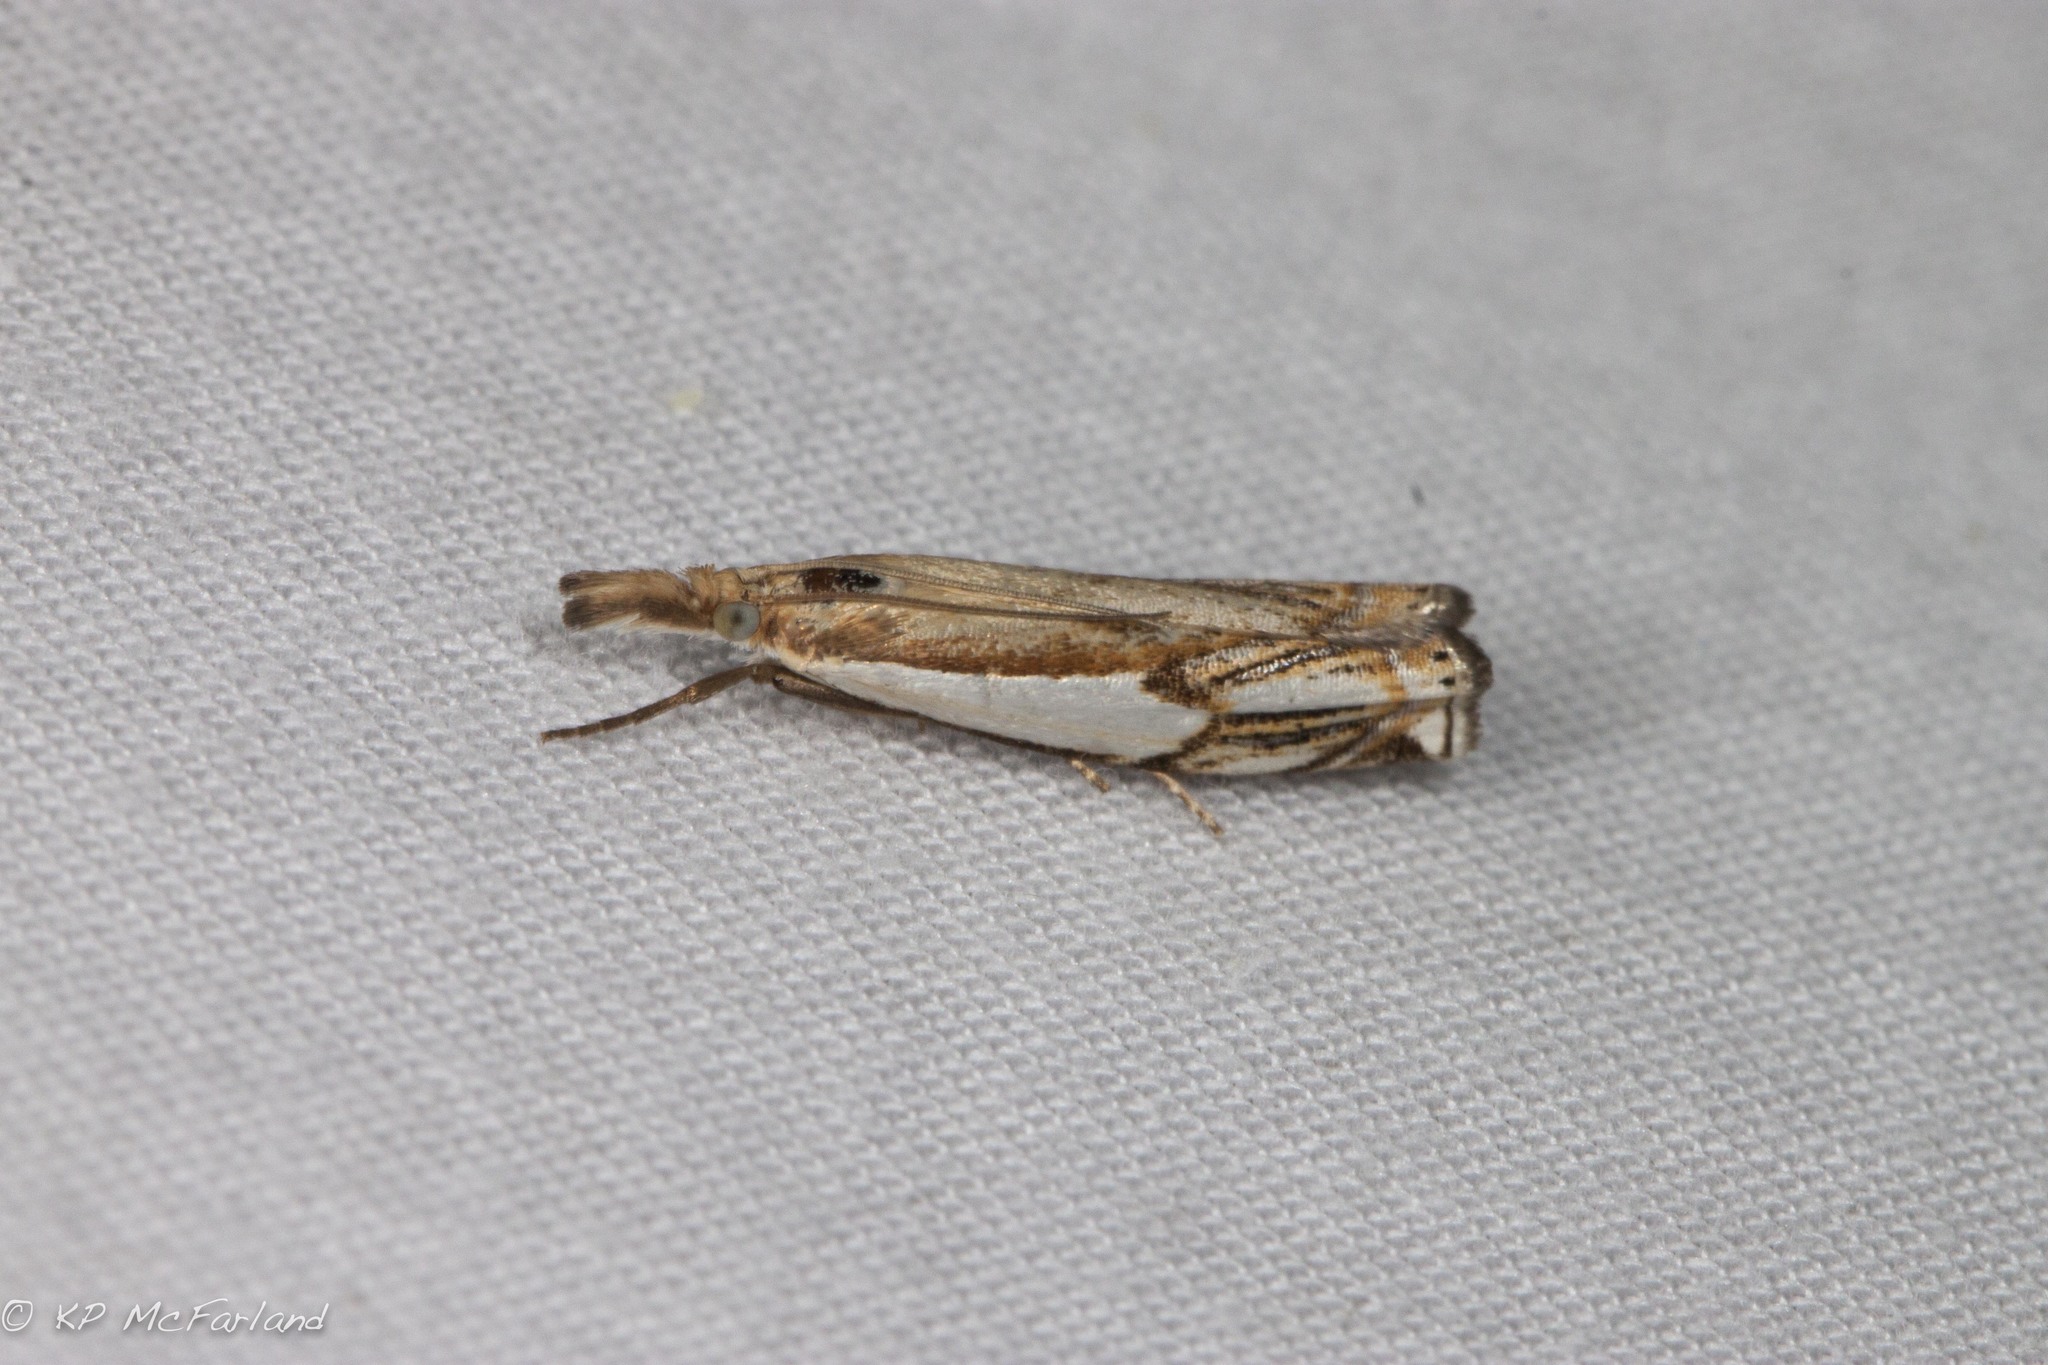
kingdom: Animalia
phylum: Arthropoda
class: Insecta
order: Lepidoptera
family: Crambidae
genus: Crambus
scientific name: Crambus agitatellus
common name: Double-banded grass-veneer
